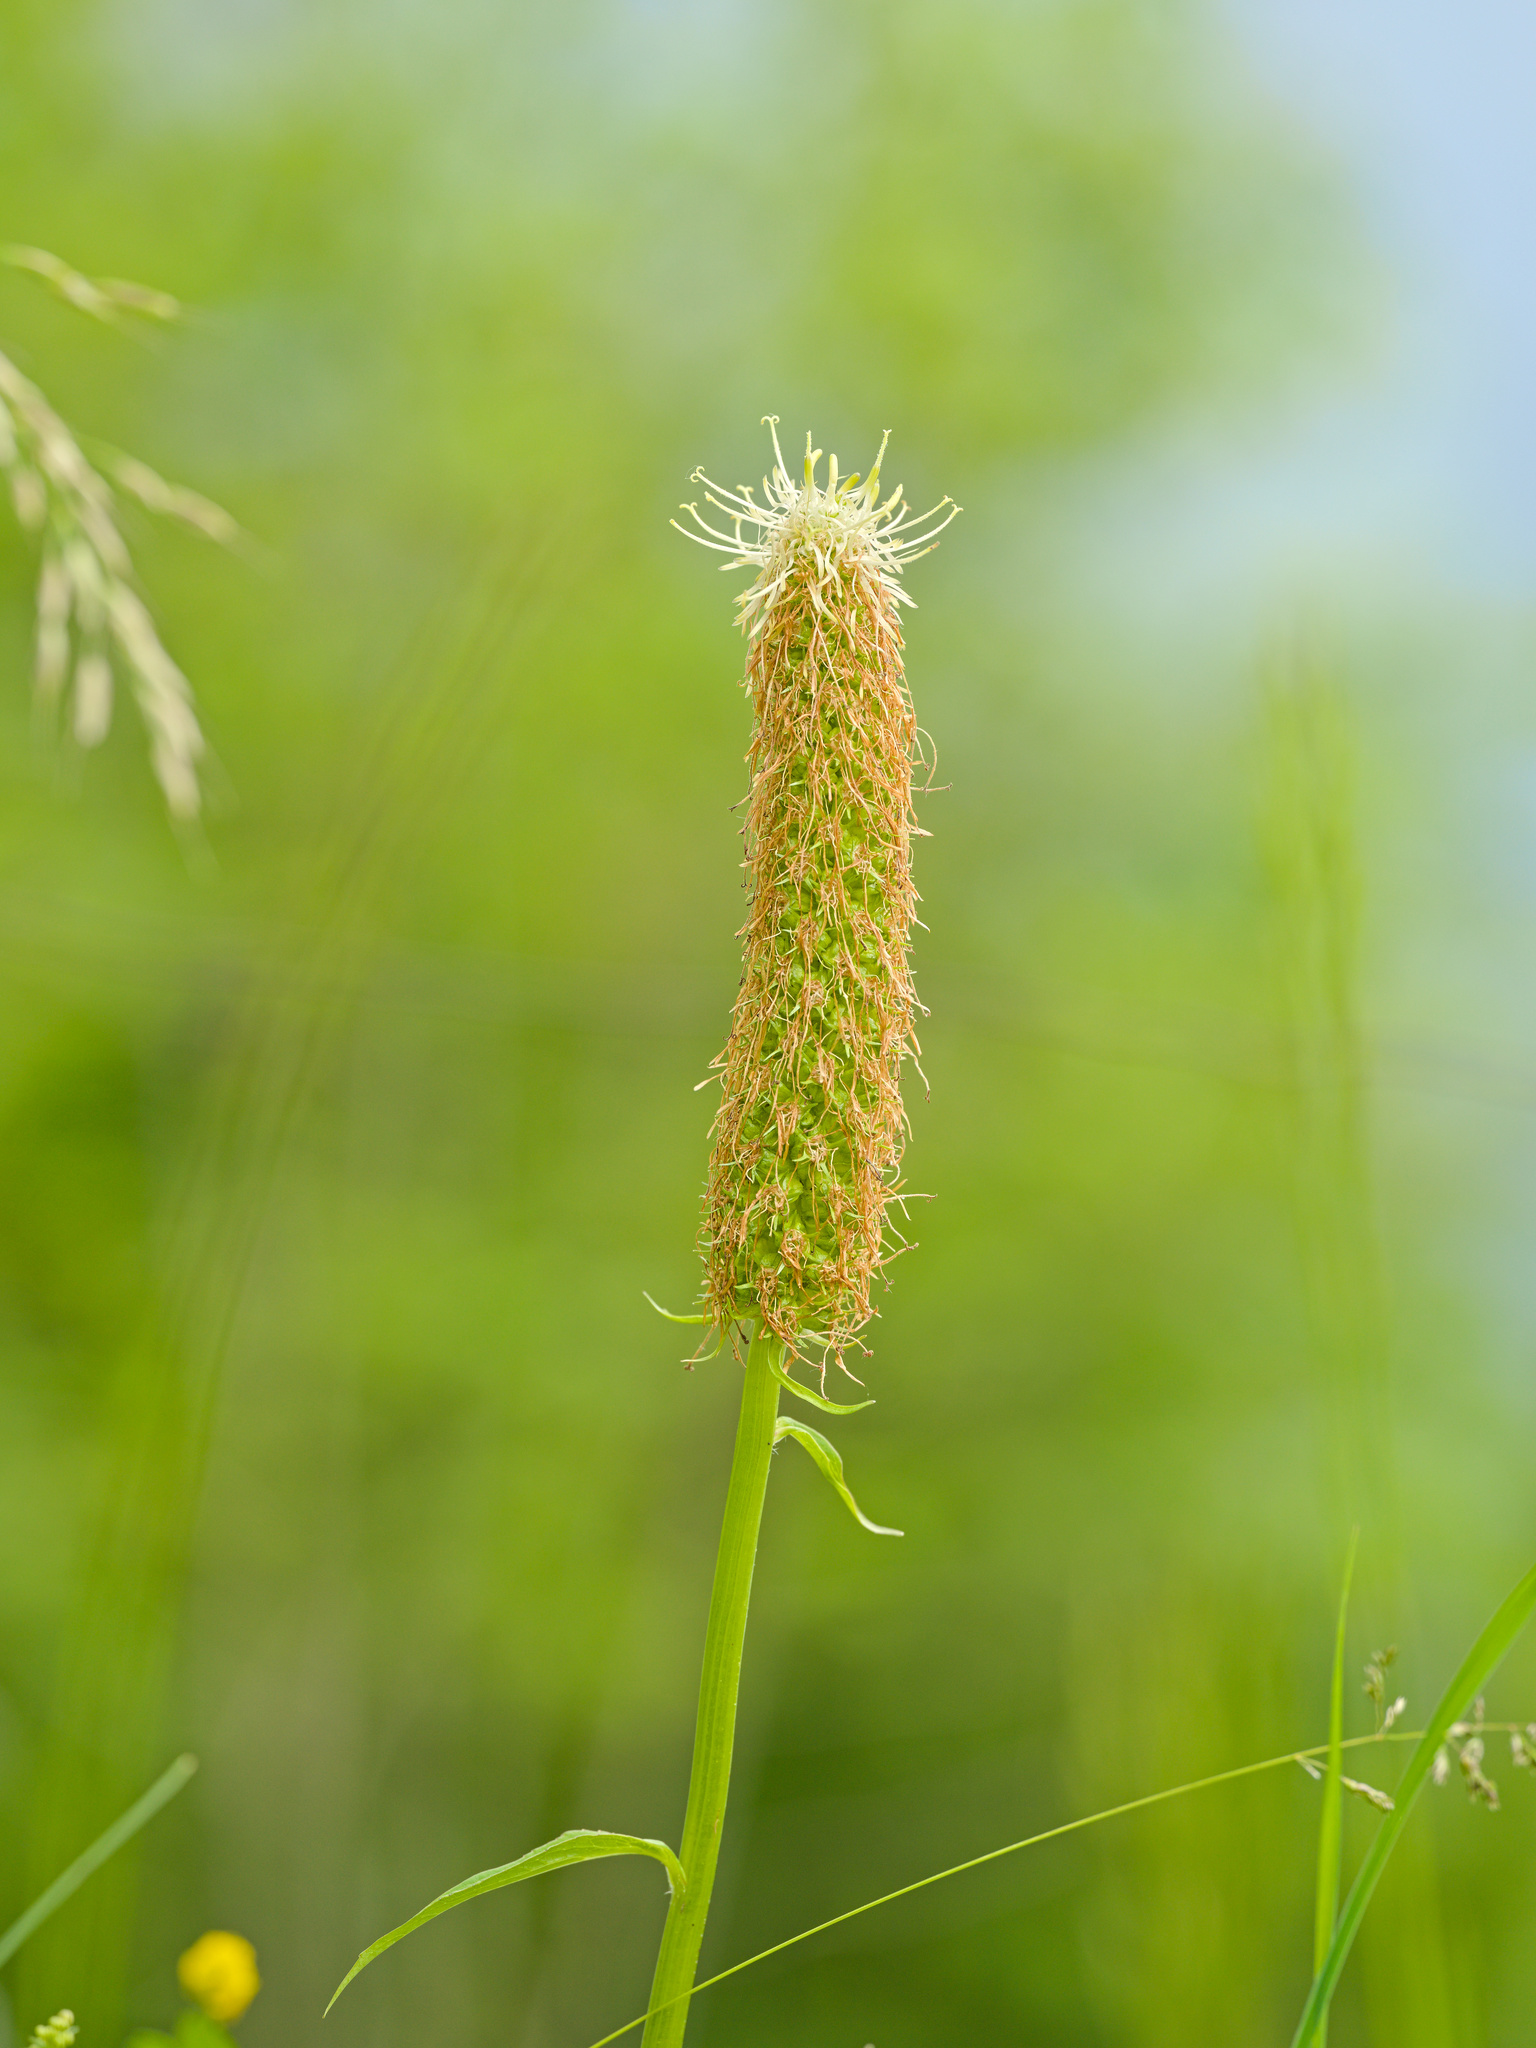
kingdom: Plantae
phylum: Tracheophyta
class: Magnoliopsida
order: Asterales
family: Campanulaceae
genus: Phyteuma
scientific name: Phyteuma spicatum
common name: Spiked rampion
